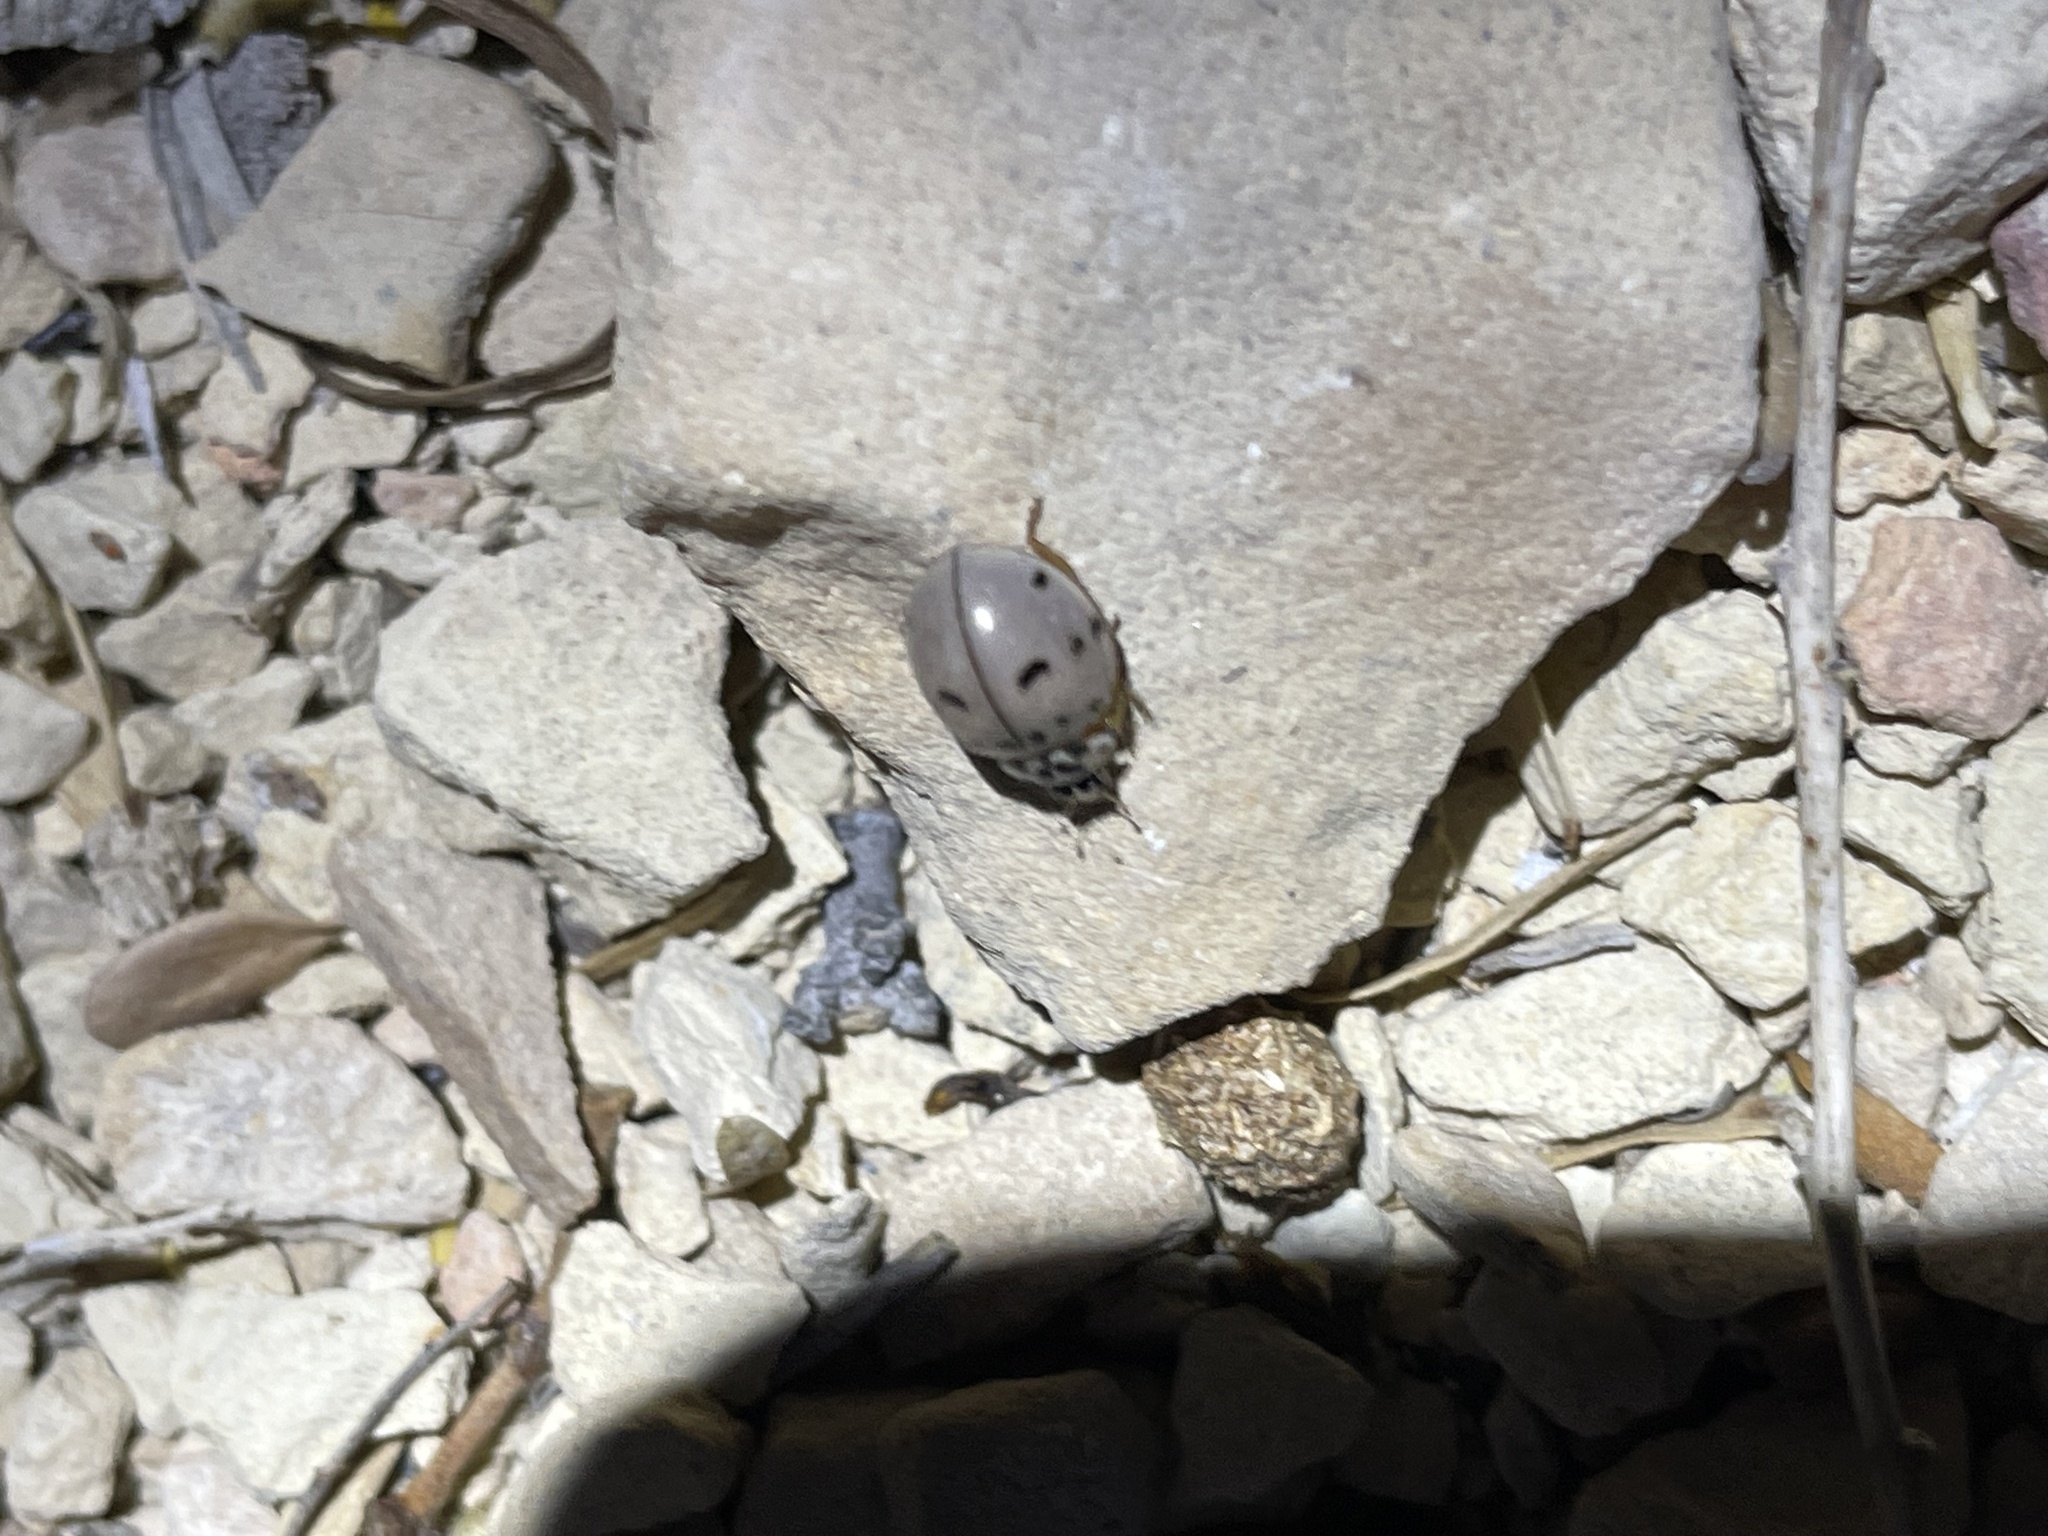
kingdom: Animalia
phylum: Arthropoda
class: Insecta
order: Coleoptera
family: Coccinellidae
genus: Olla
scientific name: Olla v-nigrum
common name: Ashy gray lady beetle
